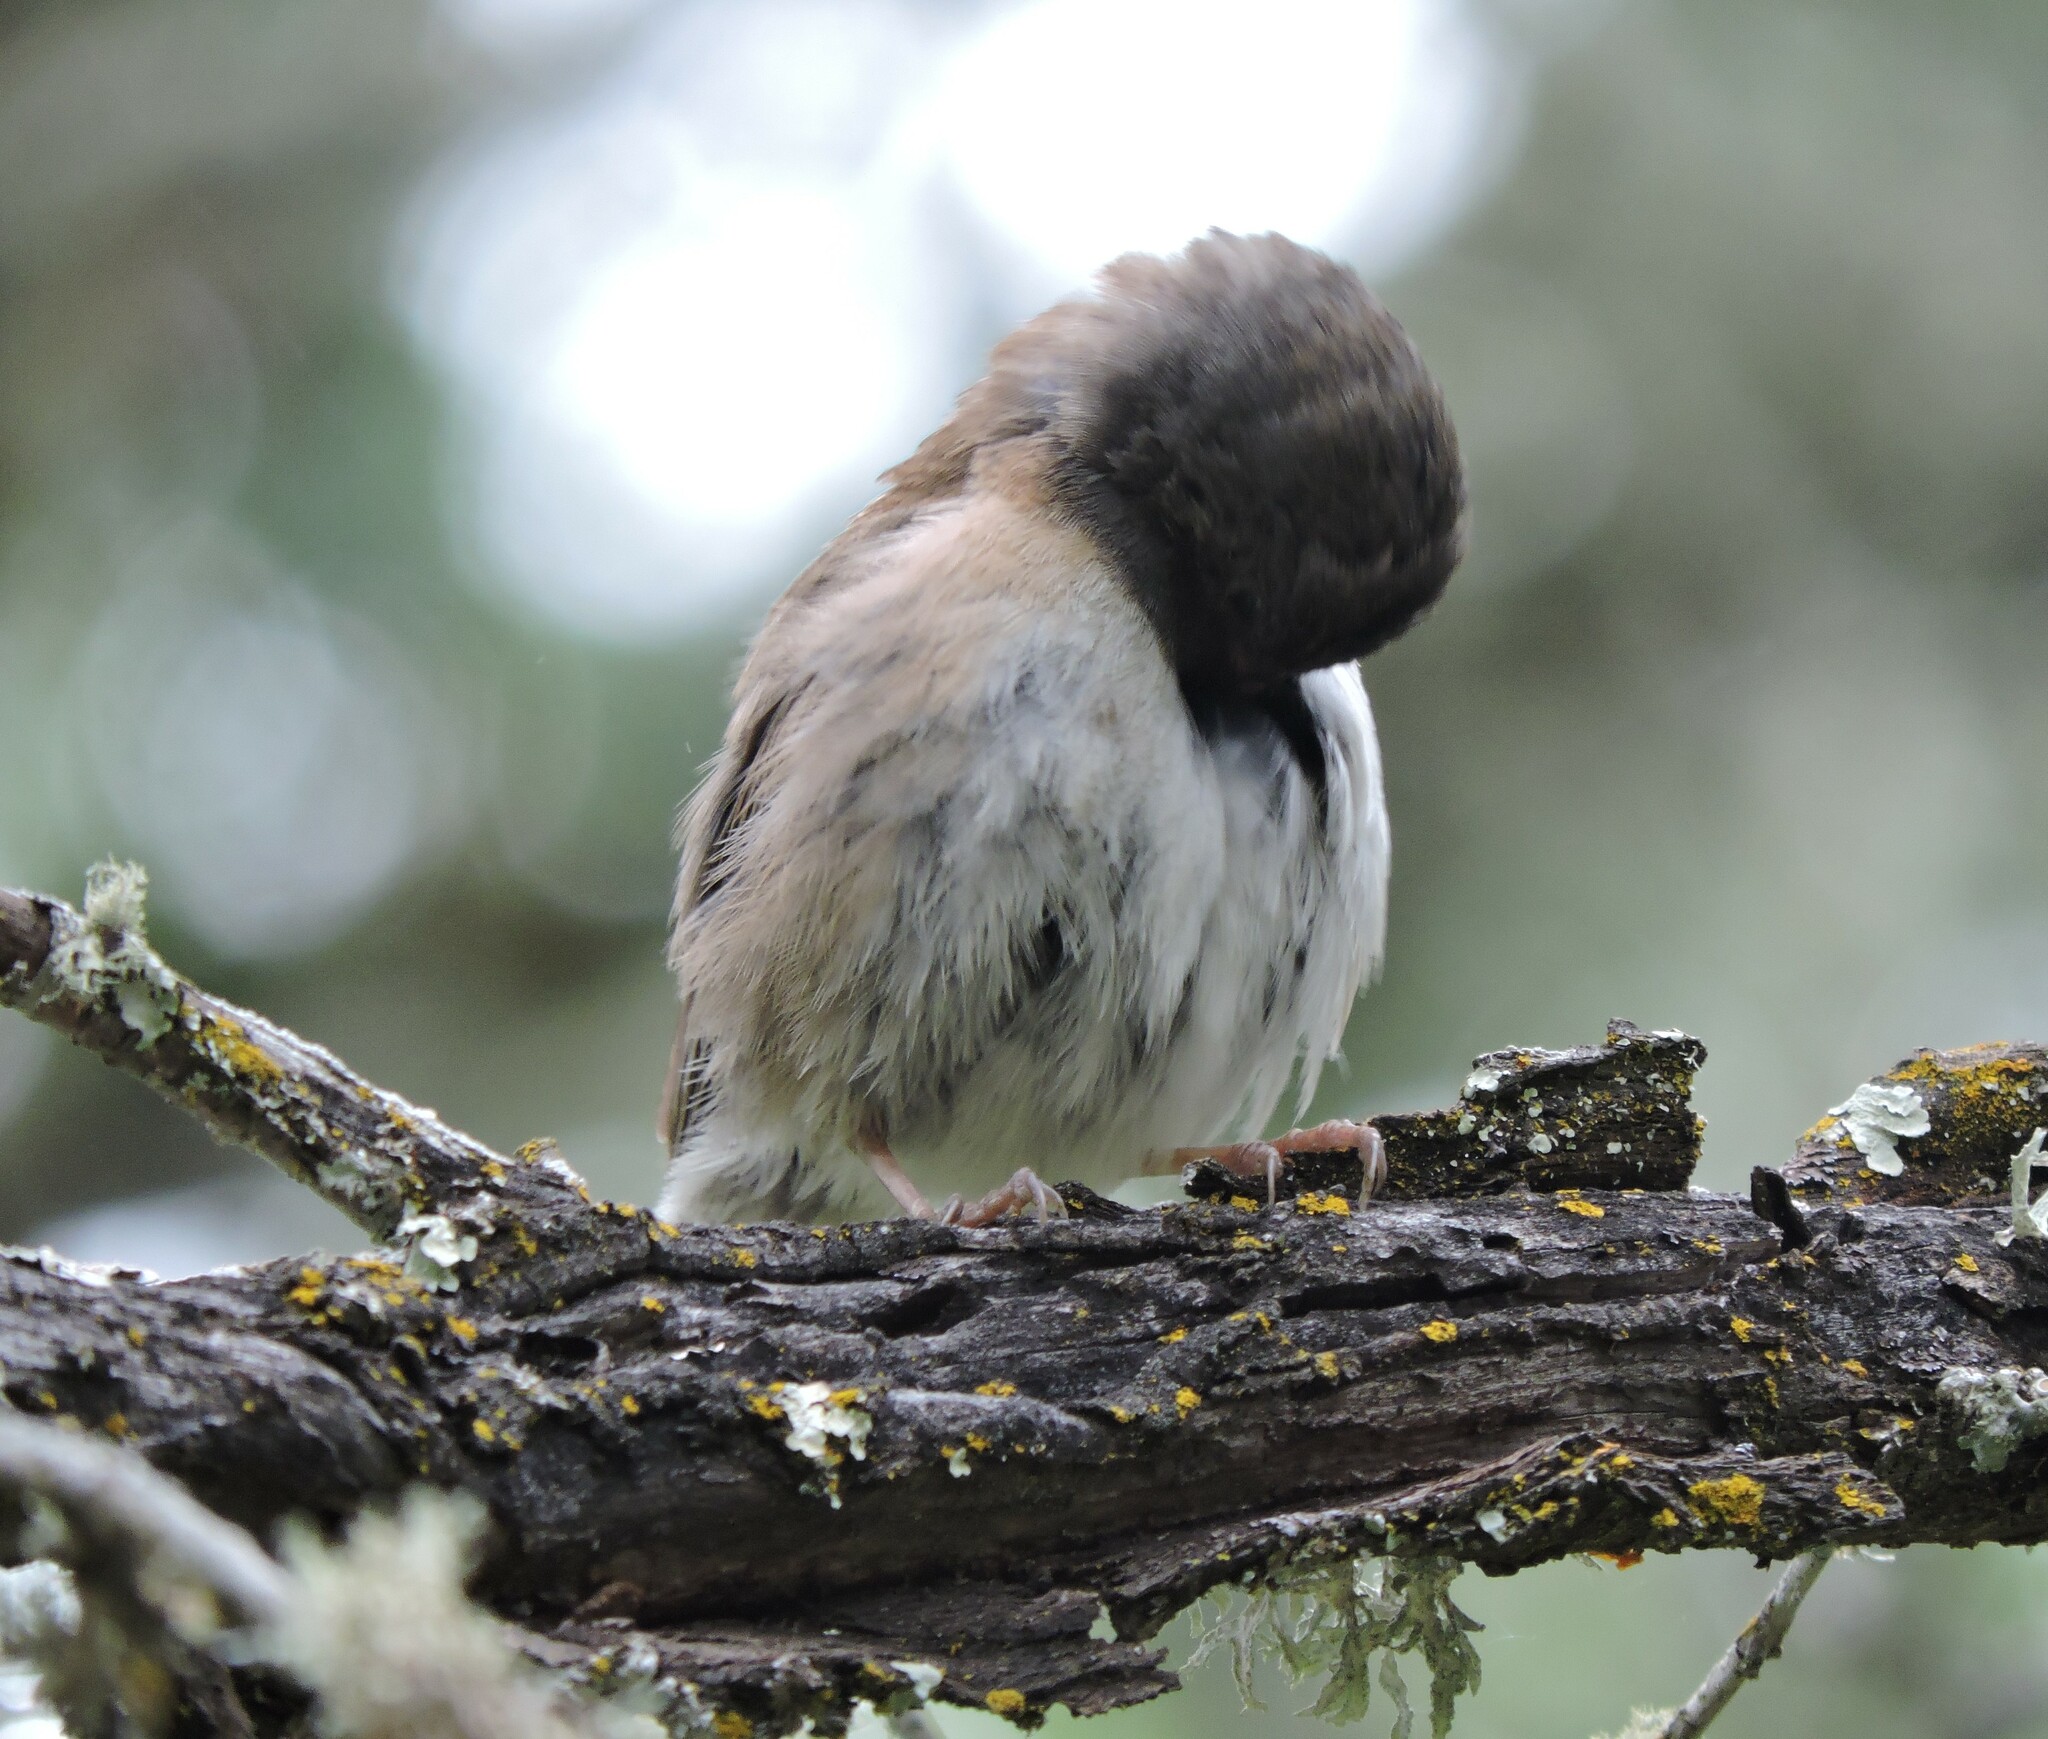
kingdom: Animalia
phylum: Chordata
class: Aves
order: Passeriformes
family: Passerellidae
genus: Junco
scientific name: Junco hyemalis
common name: Dark-eyed junco
